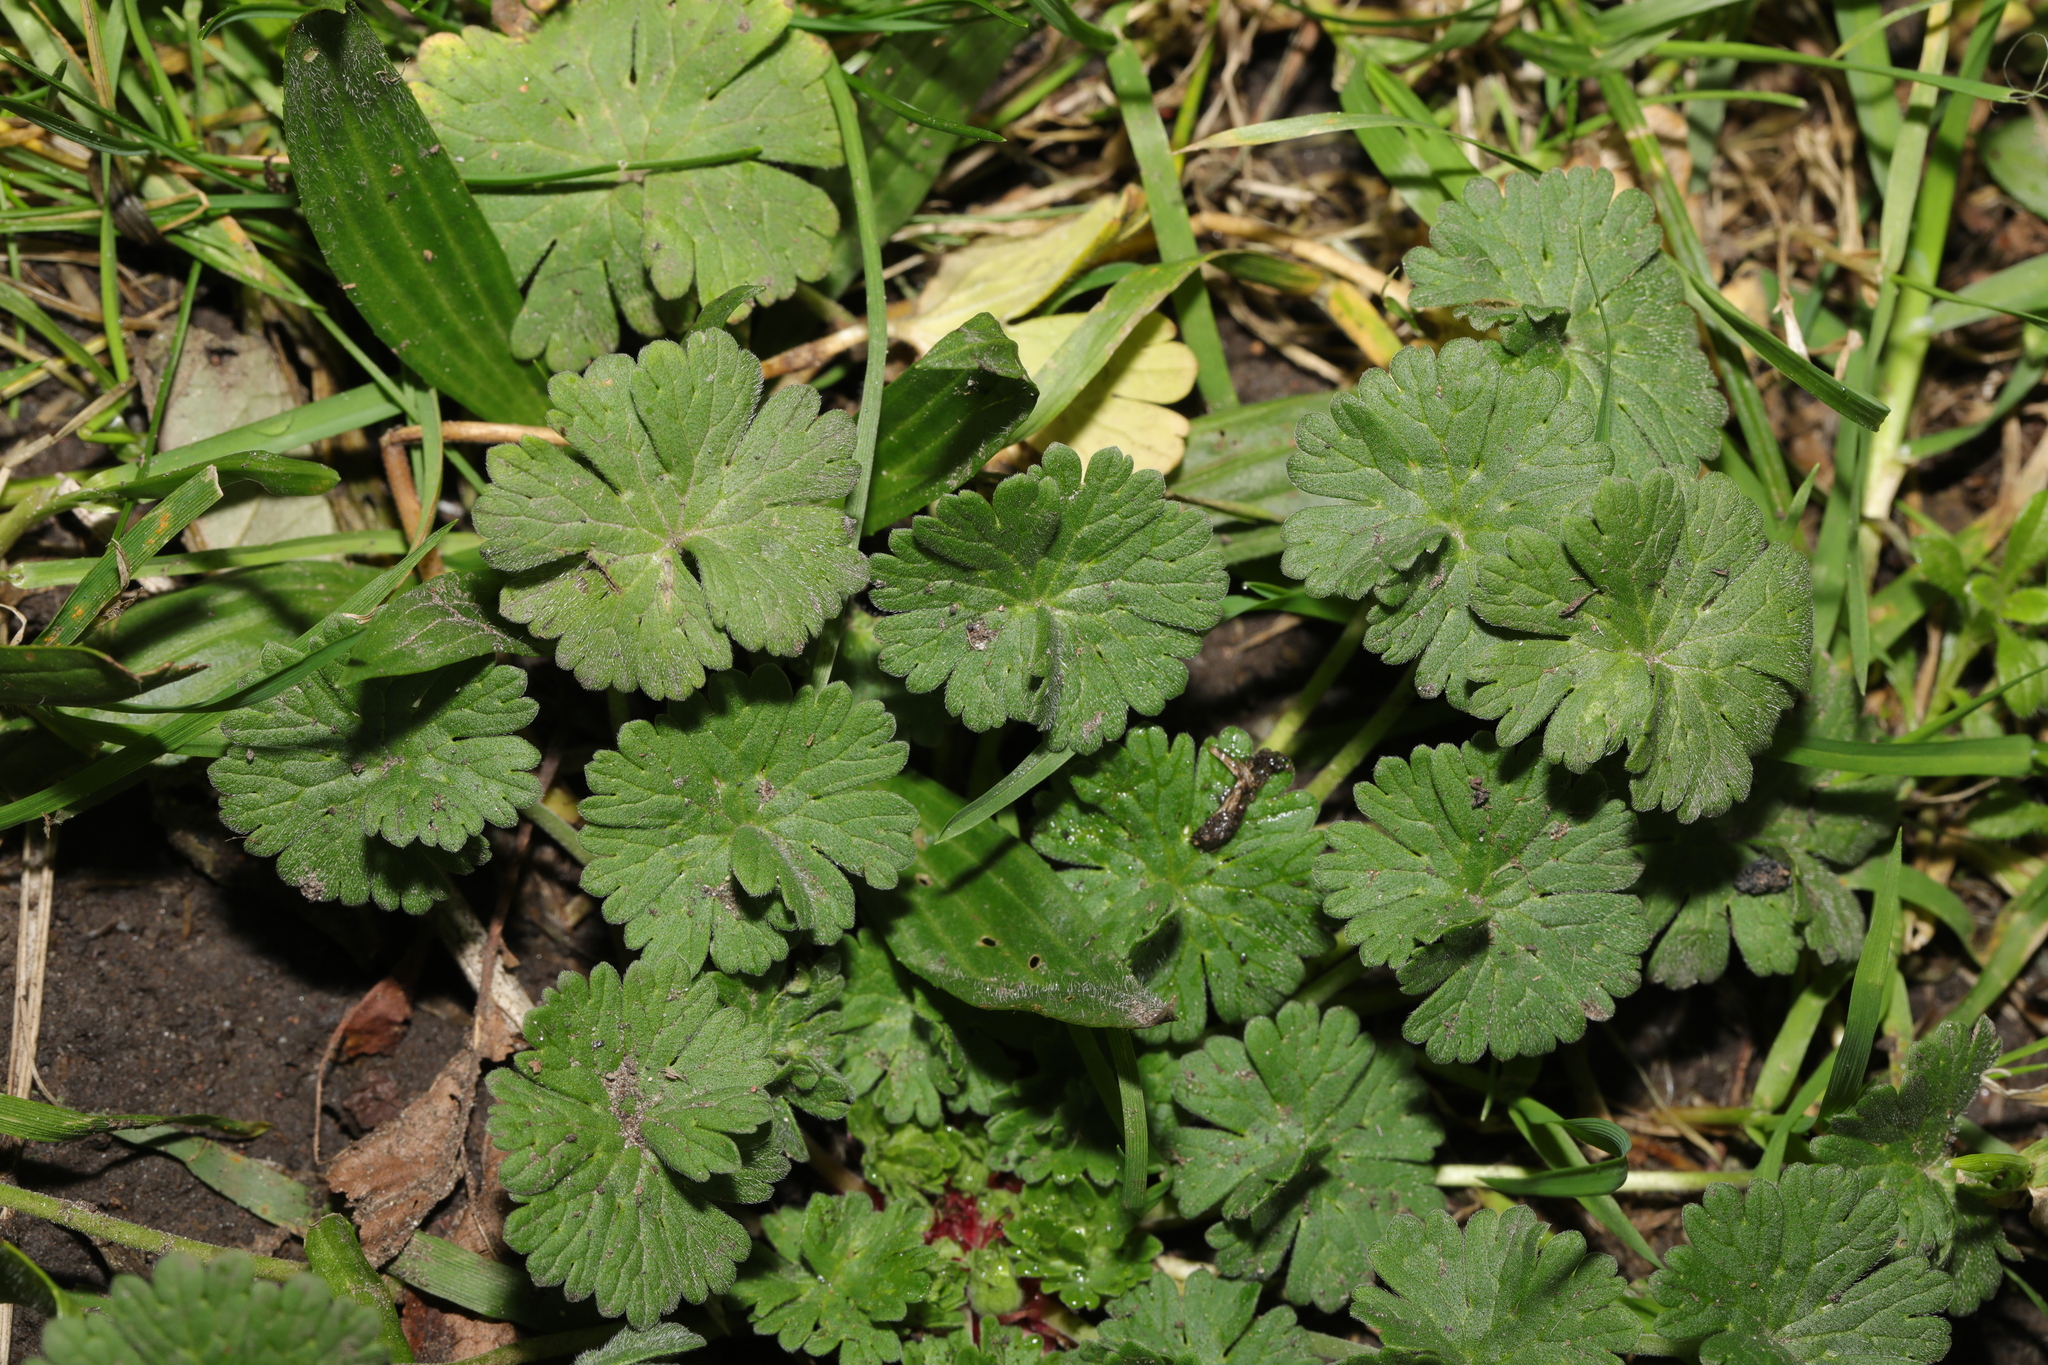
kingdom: Plantae
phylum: Tracheophyta
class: Magnoliopsida
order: Geraniales
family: Geraniaceae
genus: Geranium
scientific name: Geranium molle
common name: Dove's-foot crane's-bill
